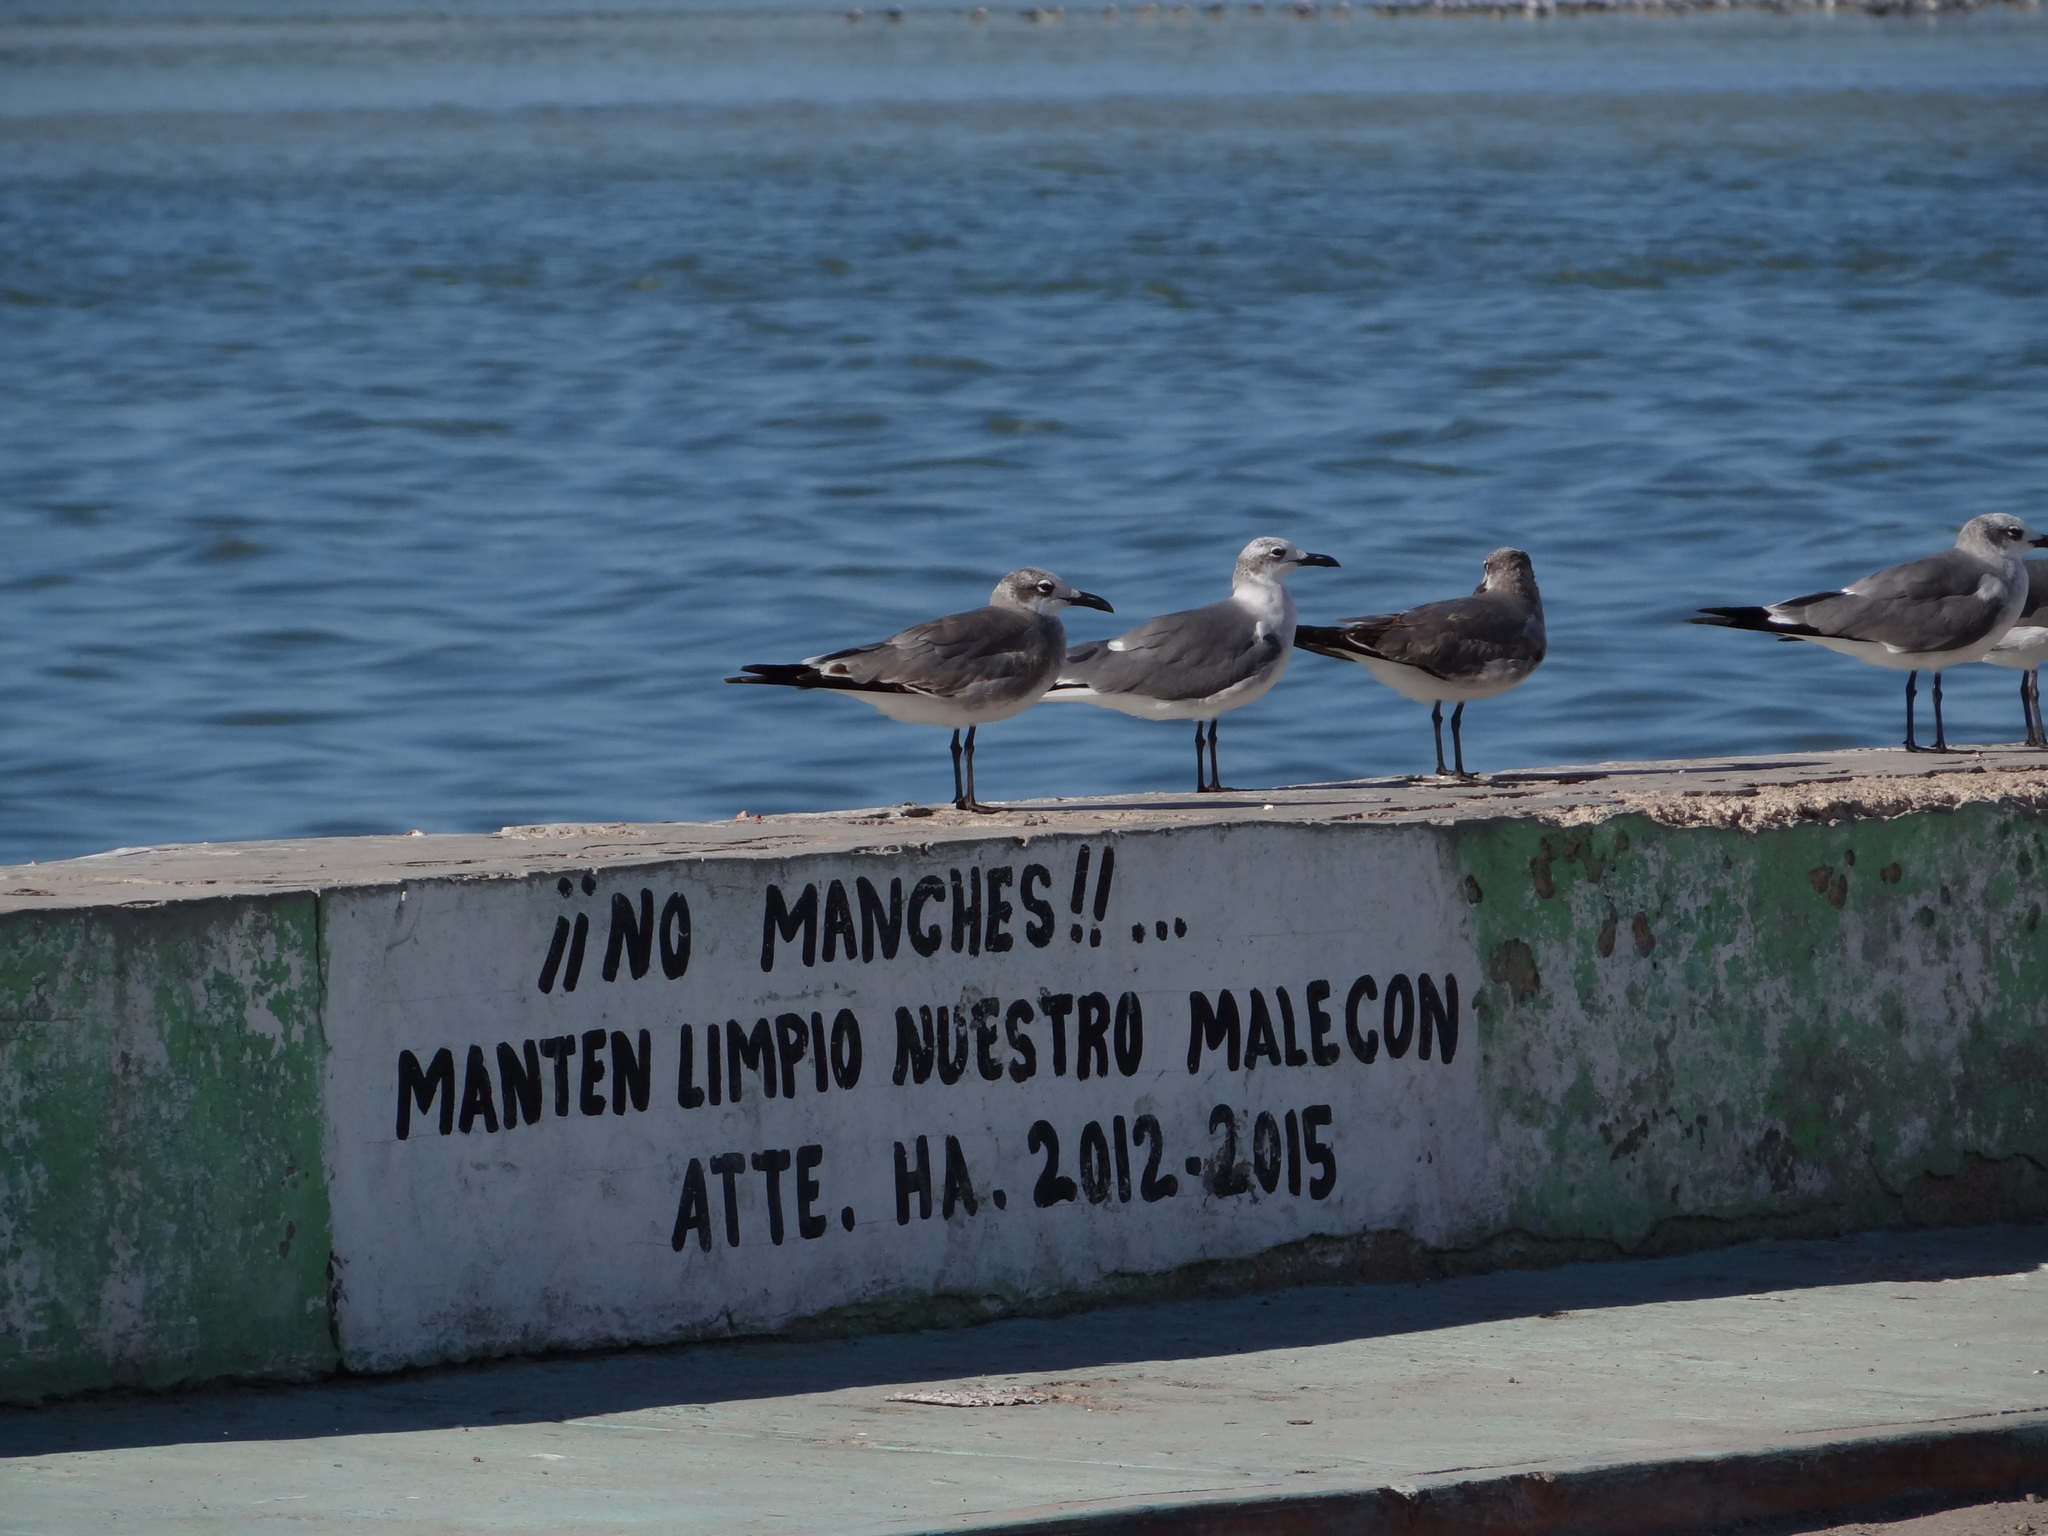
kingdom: Animalia
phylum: Chordata
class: Aves
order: Charadriiformes
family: Laridae
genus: Leucophaeus
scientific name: Leucophaeus atricilla
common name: Laughing gull
